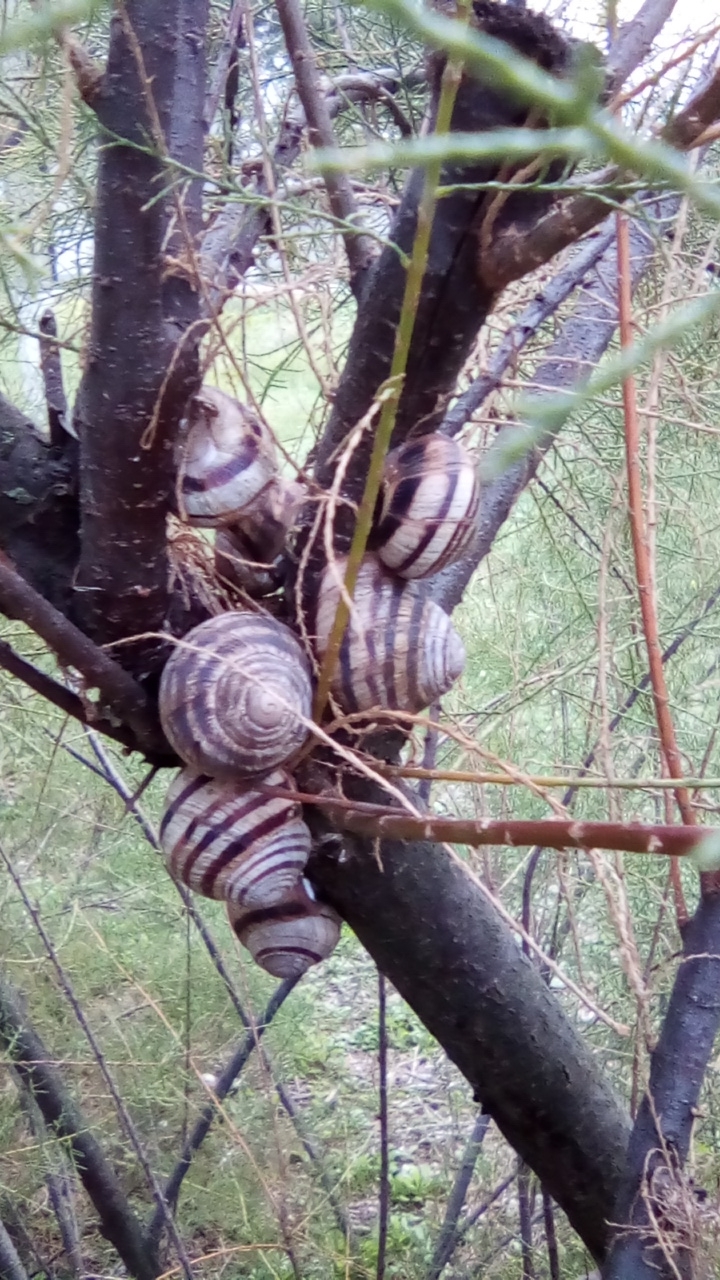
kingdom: Animalia
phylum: Mollusca
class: Gastropoda
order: Stylommatophora
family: Helicidae
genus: Helix
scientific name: Helix albescens
